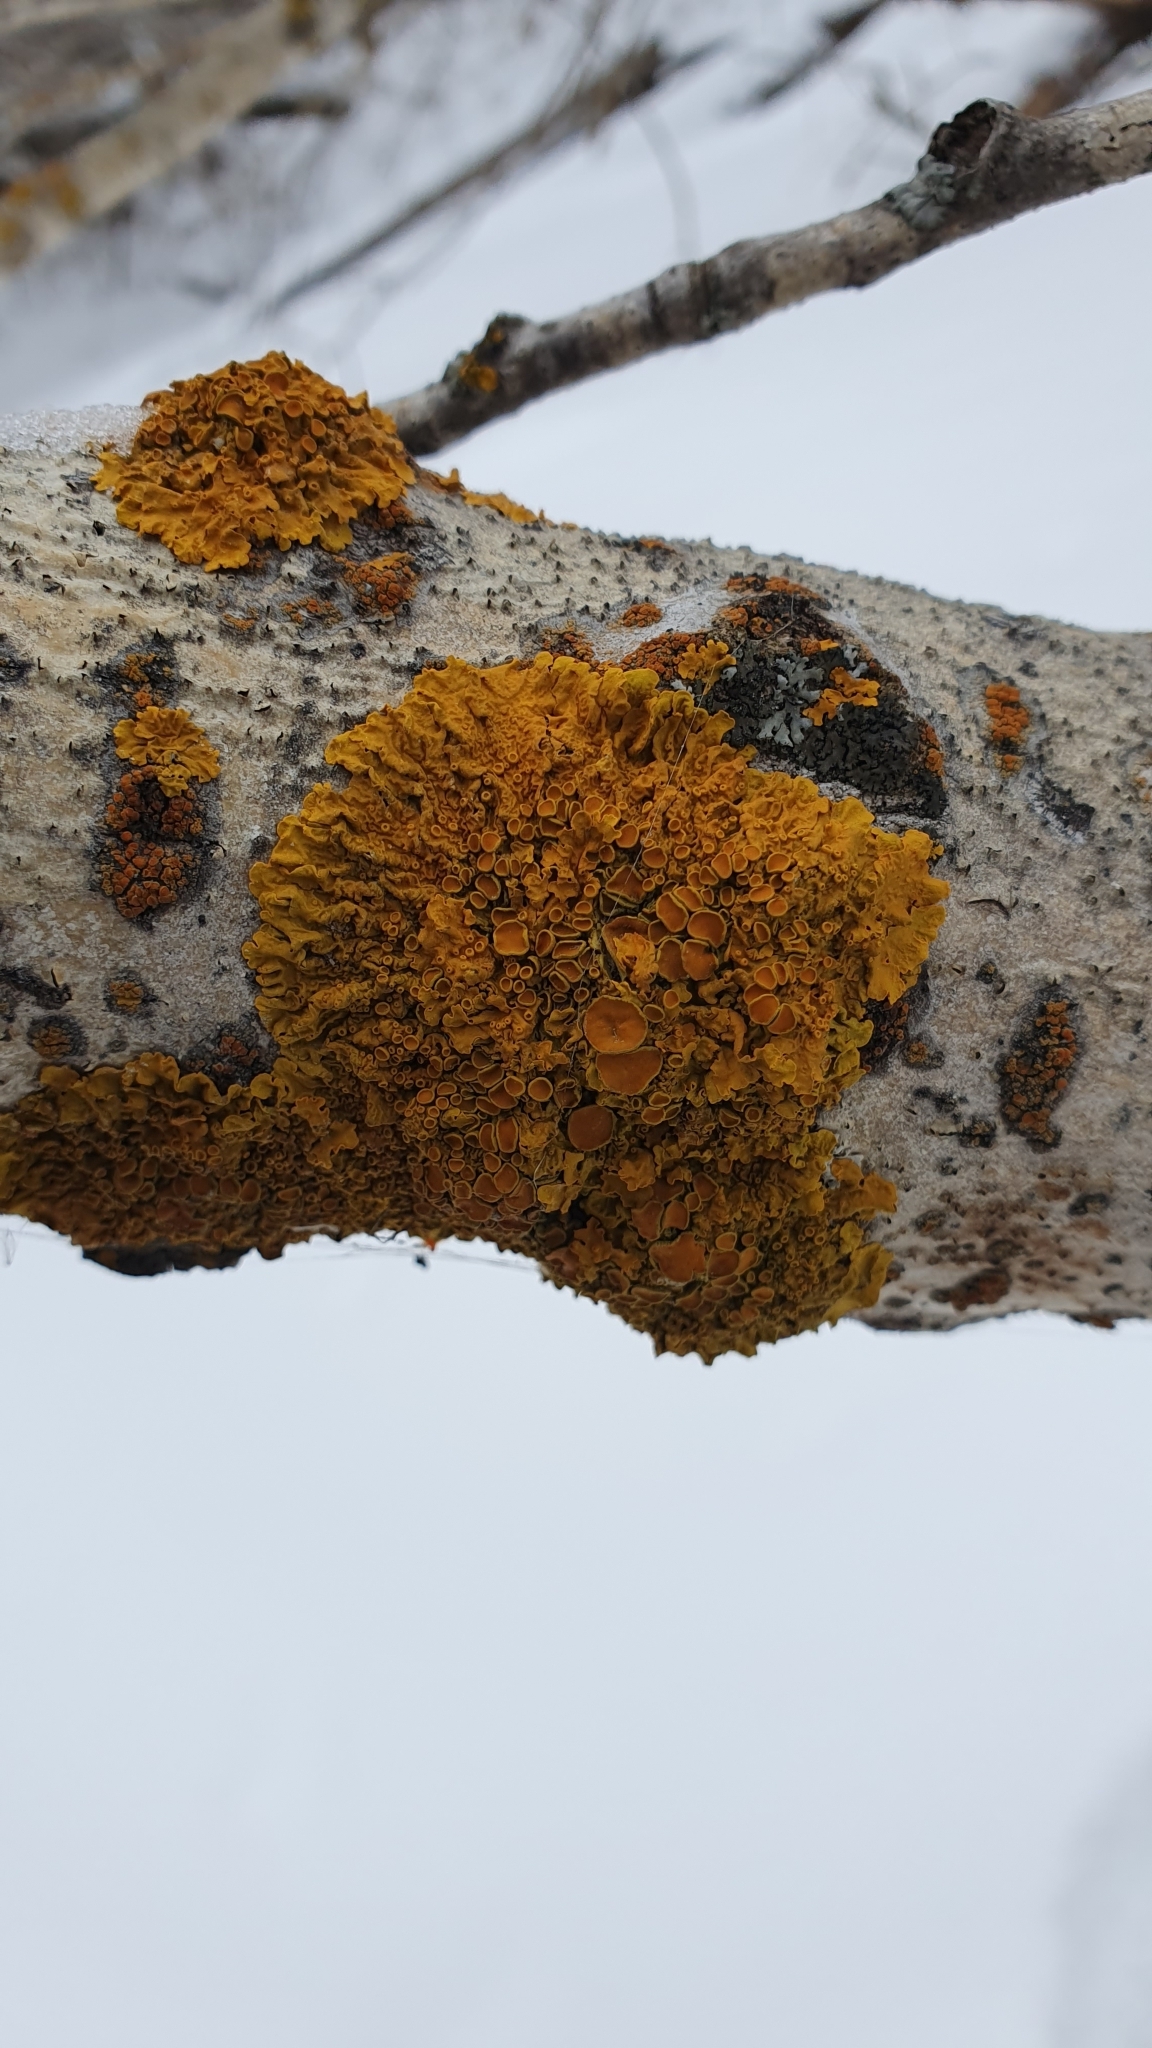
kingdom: Fungi
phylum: Ascomycota
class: Lecanoromycetes
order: Teloschistales
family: Teloschistaceae
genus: Xanthoria
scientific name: Xanthoria parietina
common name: Common orange lichen
